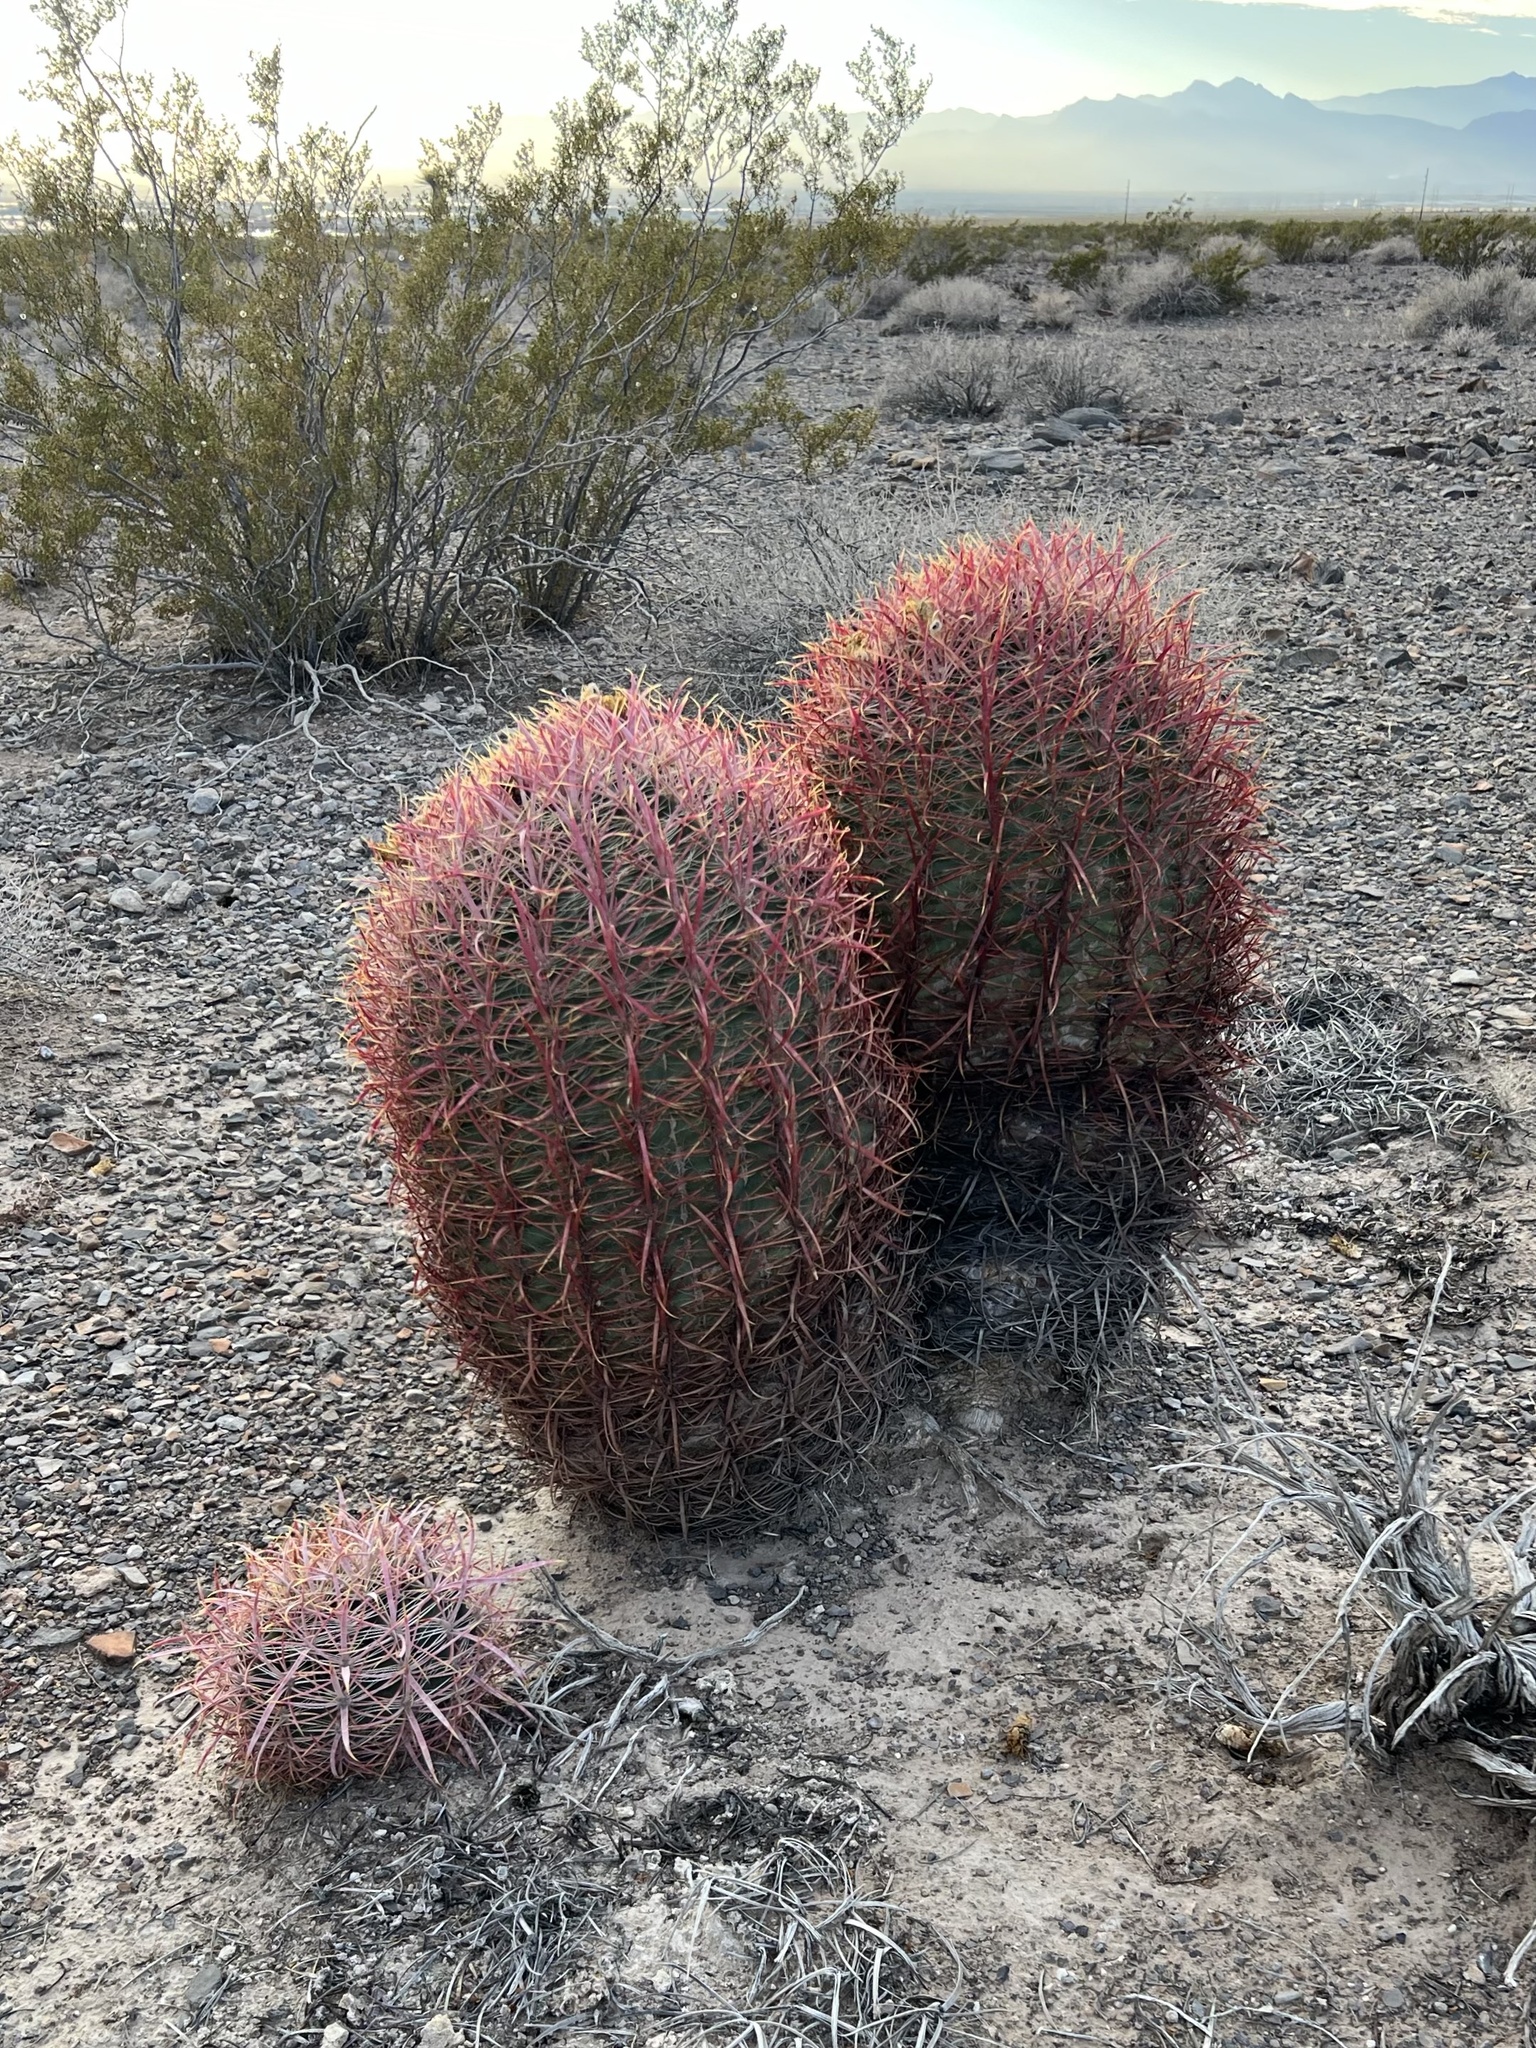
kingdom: Plantae
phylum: Tracheophyta
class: Magnoliopsida
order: Caryophyllales
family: Cactaceae
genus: Ferocactus
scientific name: Ferocactus cylindraceus
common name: California barrel cactus
